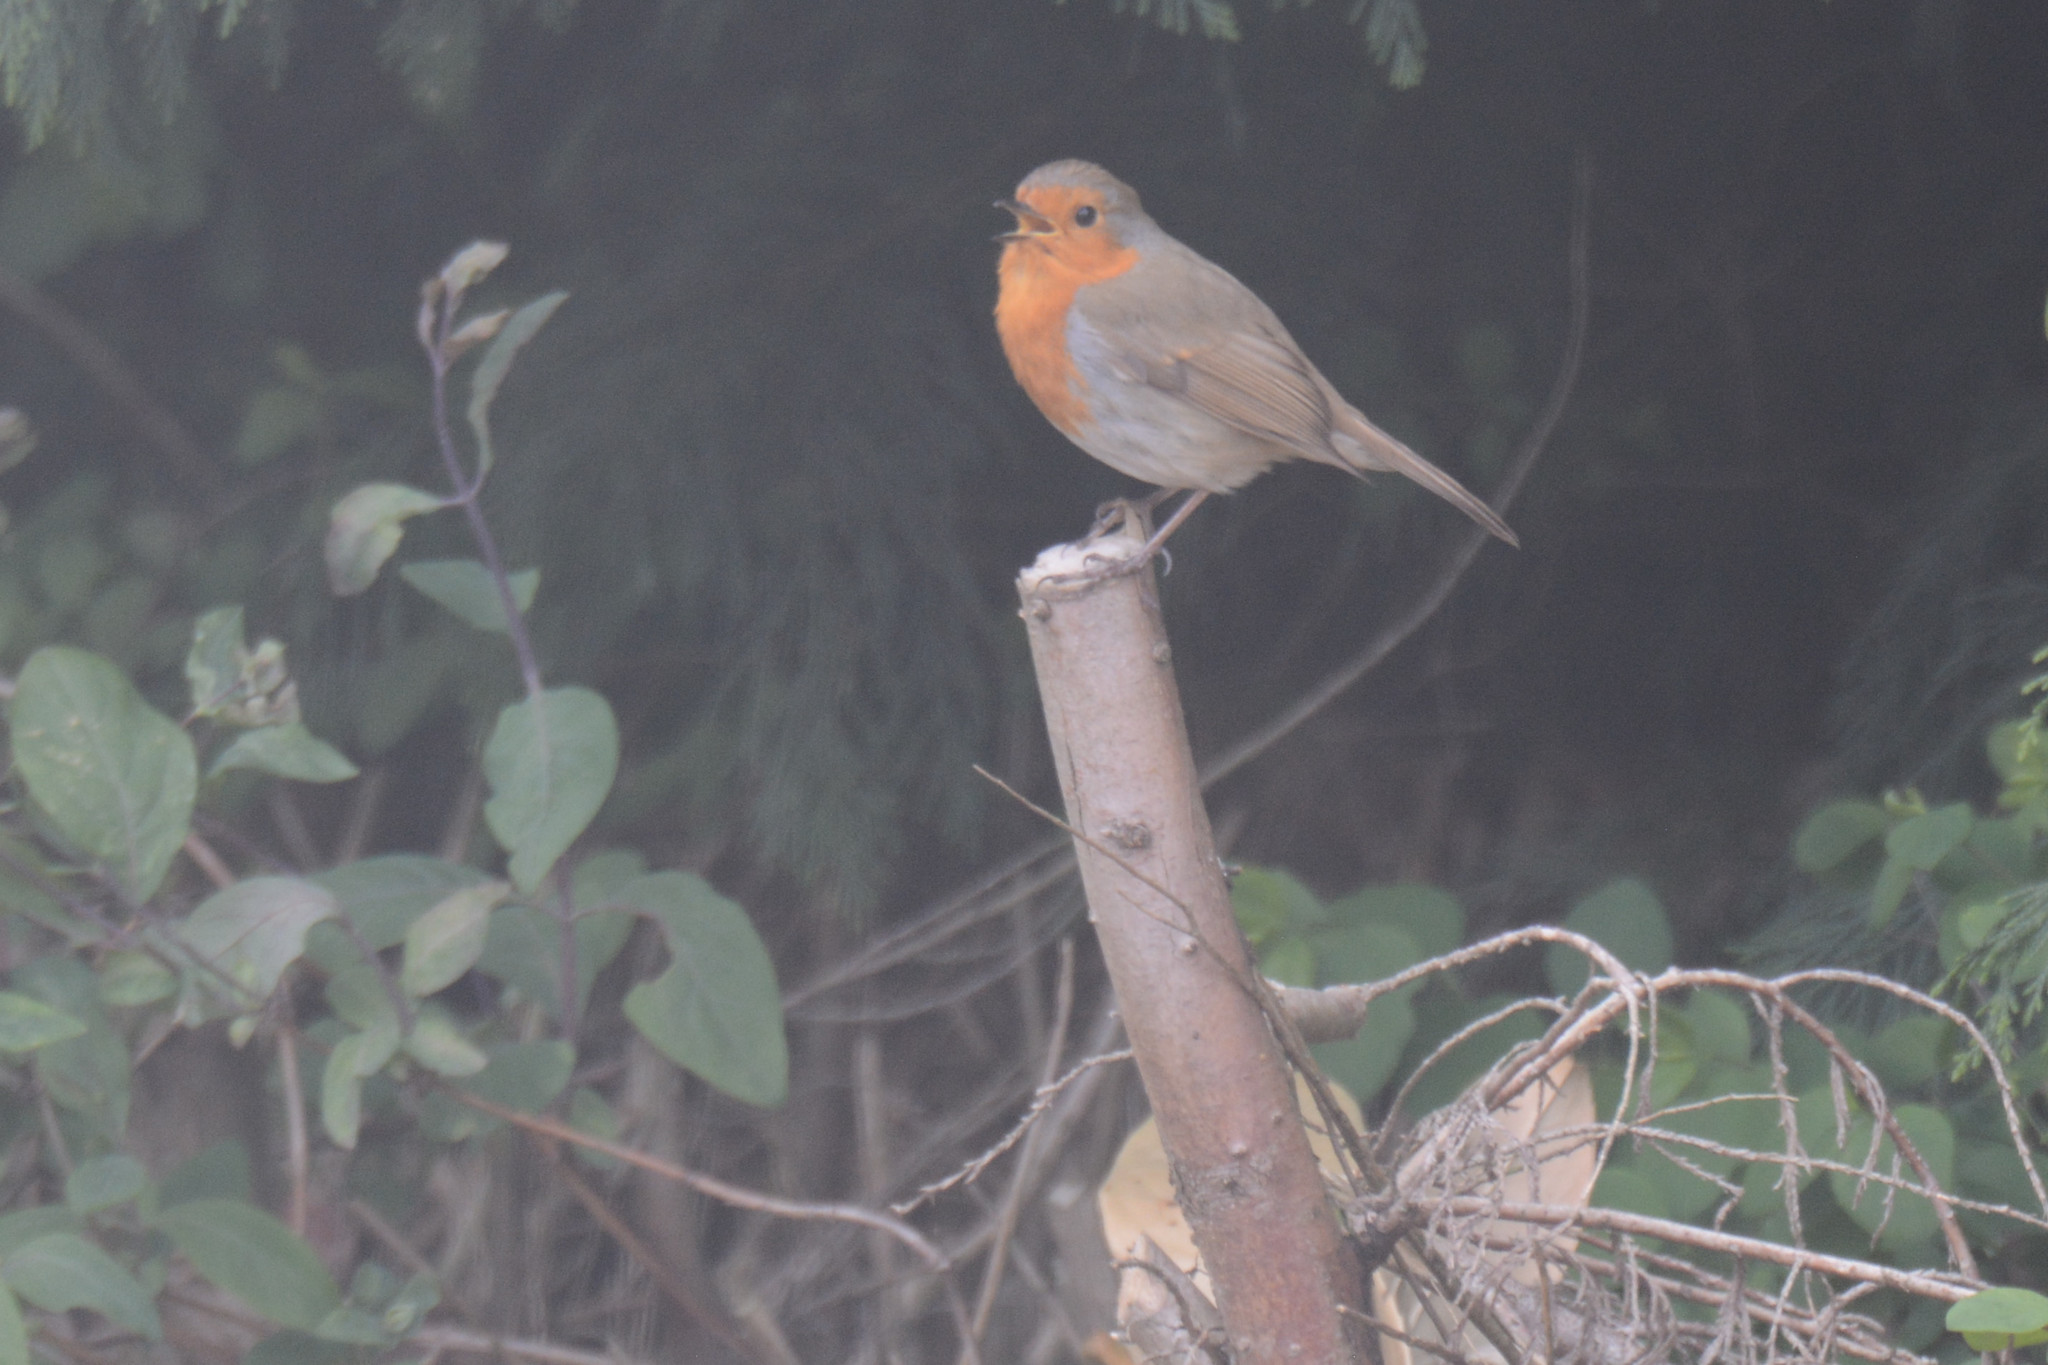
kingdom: Animalia
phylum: Chordata
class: Aves
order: Passeriformes
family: Muscicapidae
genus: Erithacus
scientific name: Erithacus rubecula
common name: European robin
